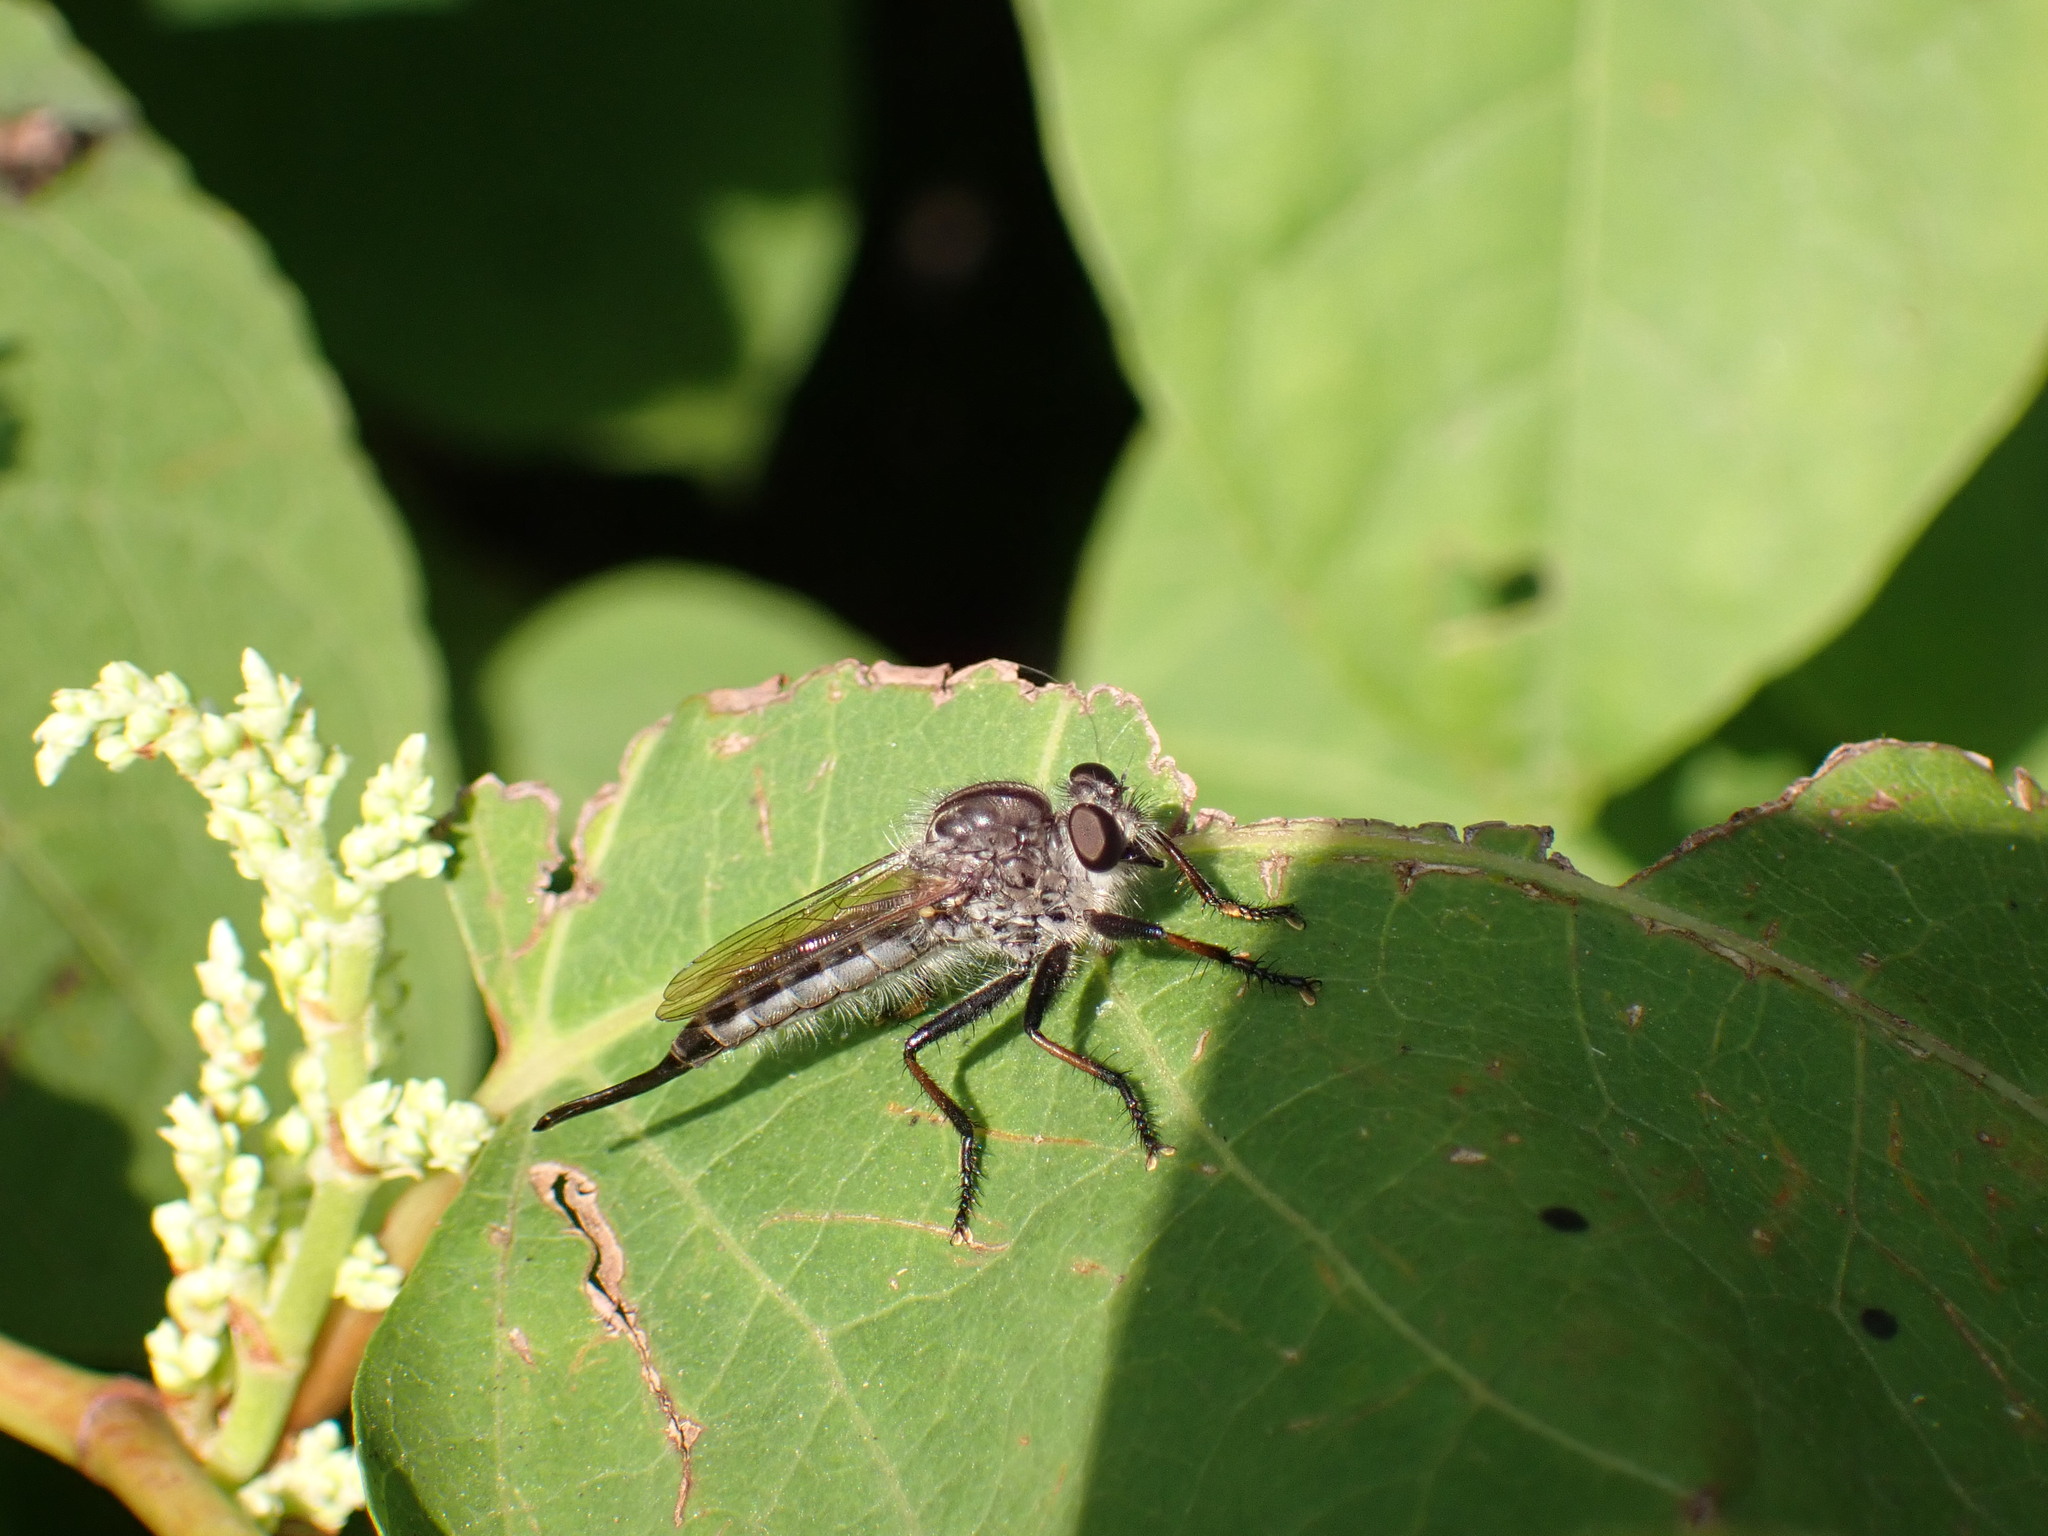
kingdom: Animalia
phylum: Arthropoda
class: Insecta
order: Diptera
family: Asilidae
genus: Efferia
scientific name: Efferia
